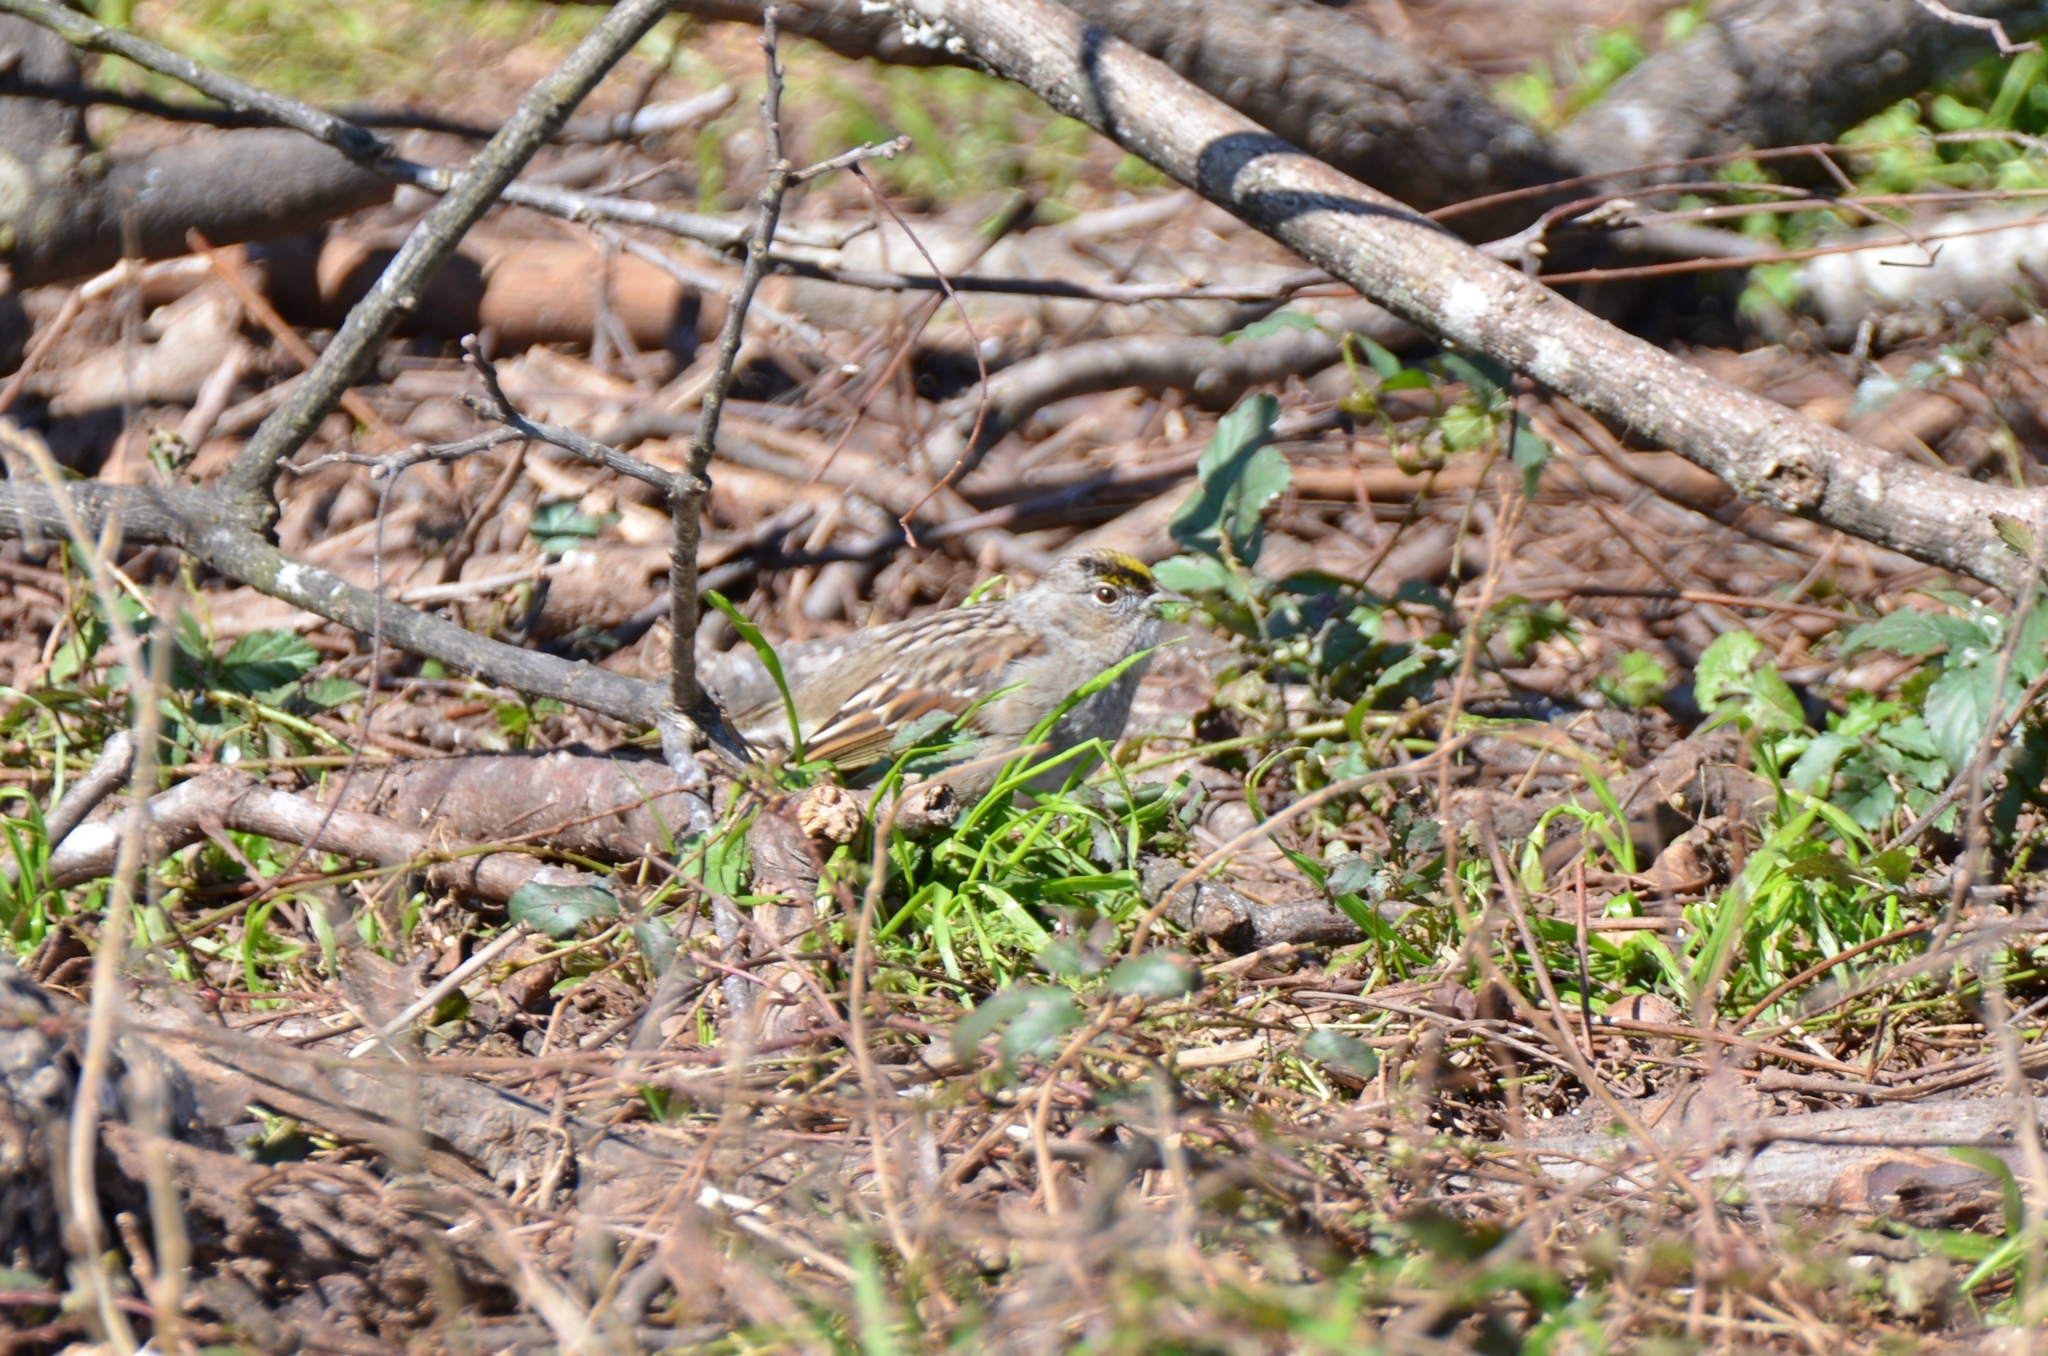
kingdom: Animalia
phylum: Chordata
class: Aves
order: Passeriformes
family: Passerellidae
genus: Zonotrichia
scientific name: Zonotrichia atricapilla
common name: Golden-crowned sparrow
